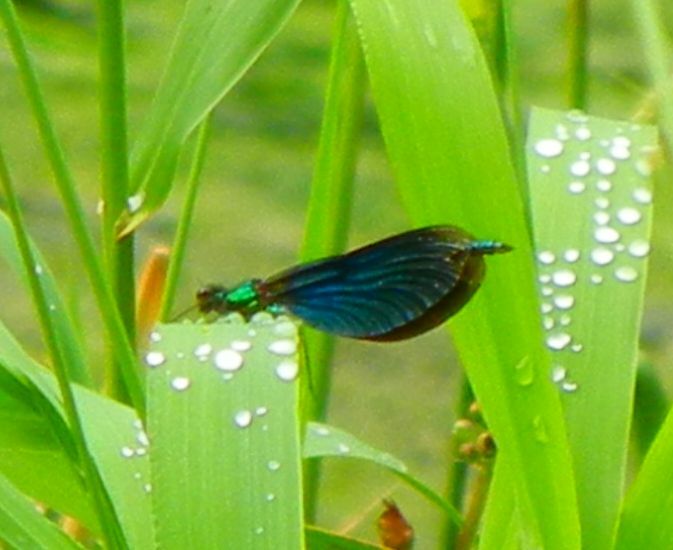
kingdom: Animalia
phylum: Arthropoda
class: Insecta
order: Odonata
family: Calopterygidae
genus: Calopteryx
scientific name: Calopteryx virgo
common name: Beautiful demoiselle
